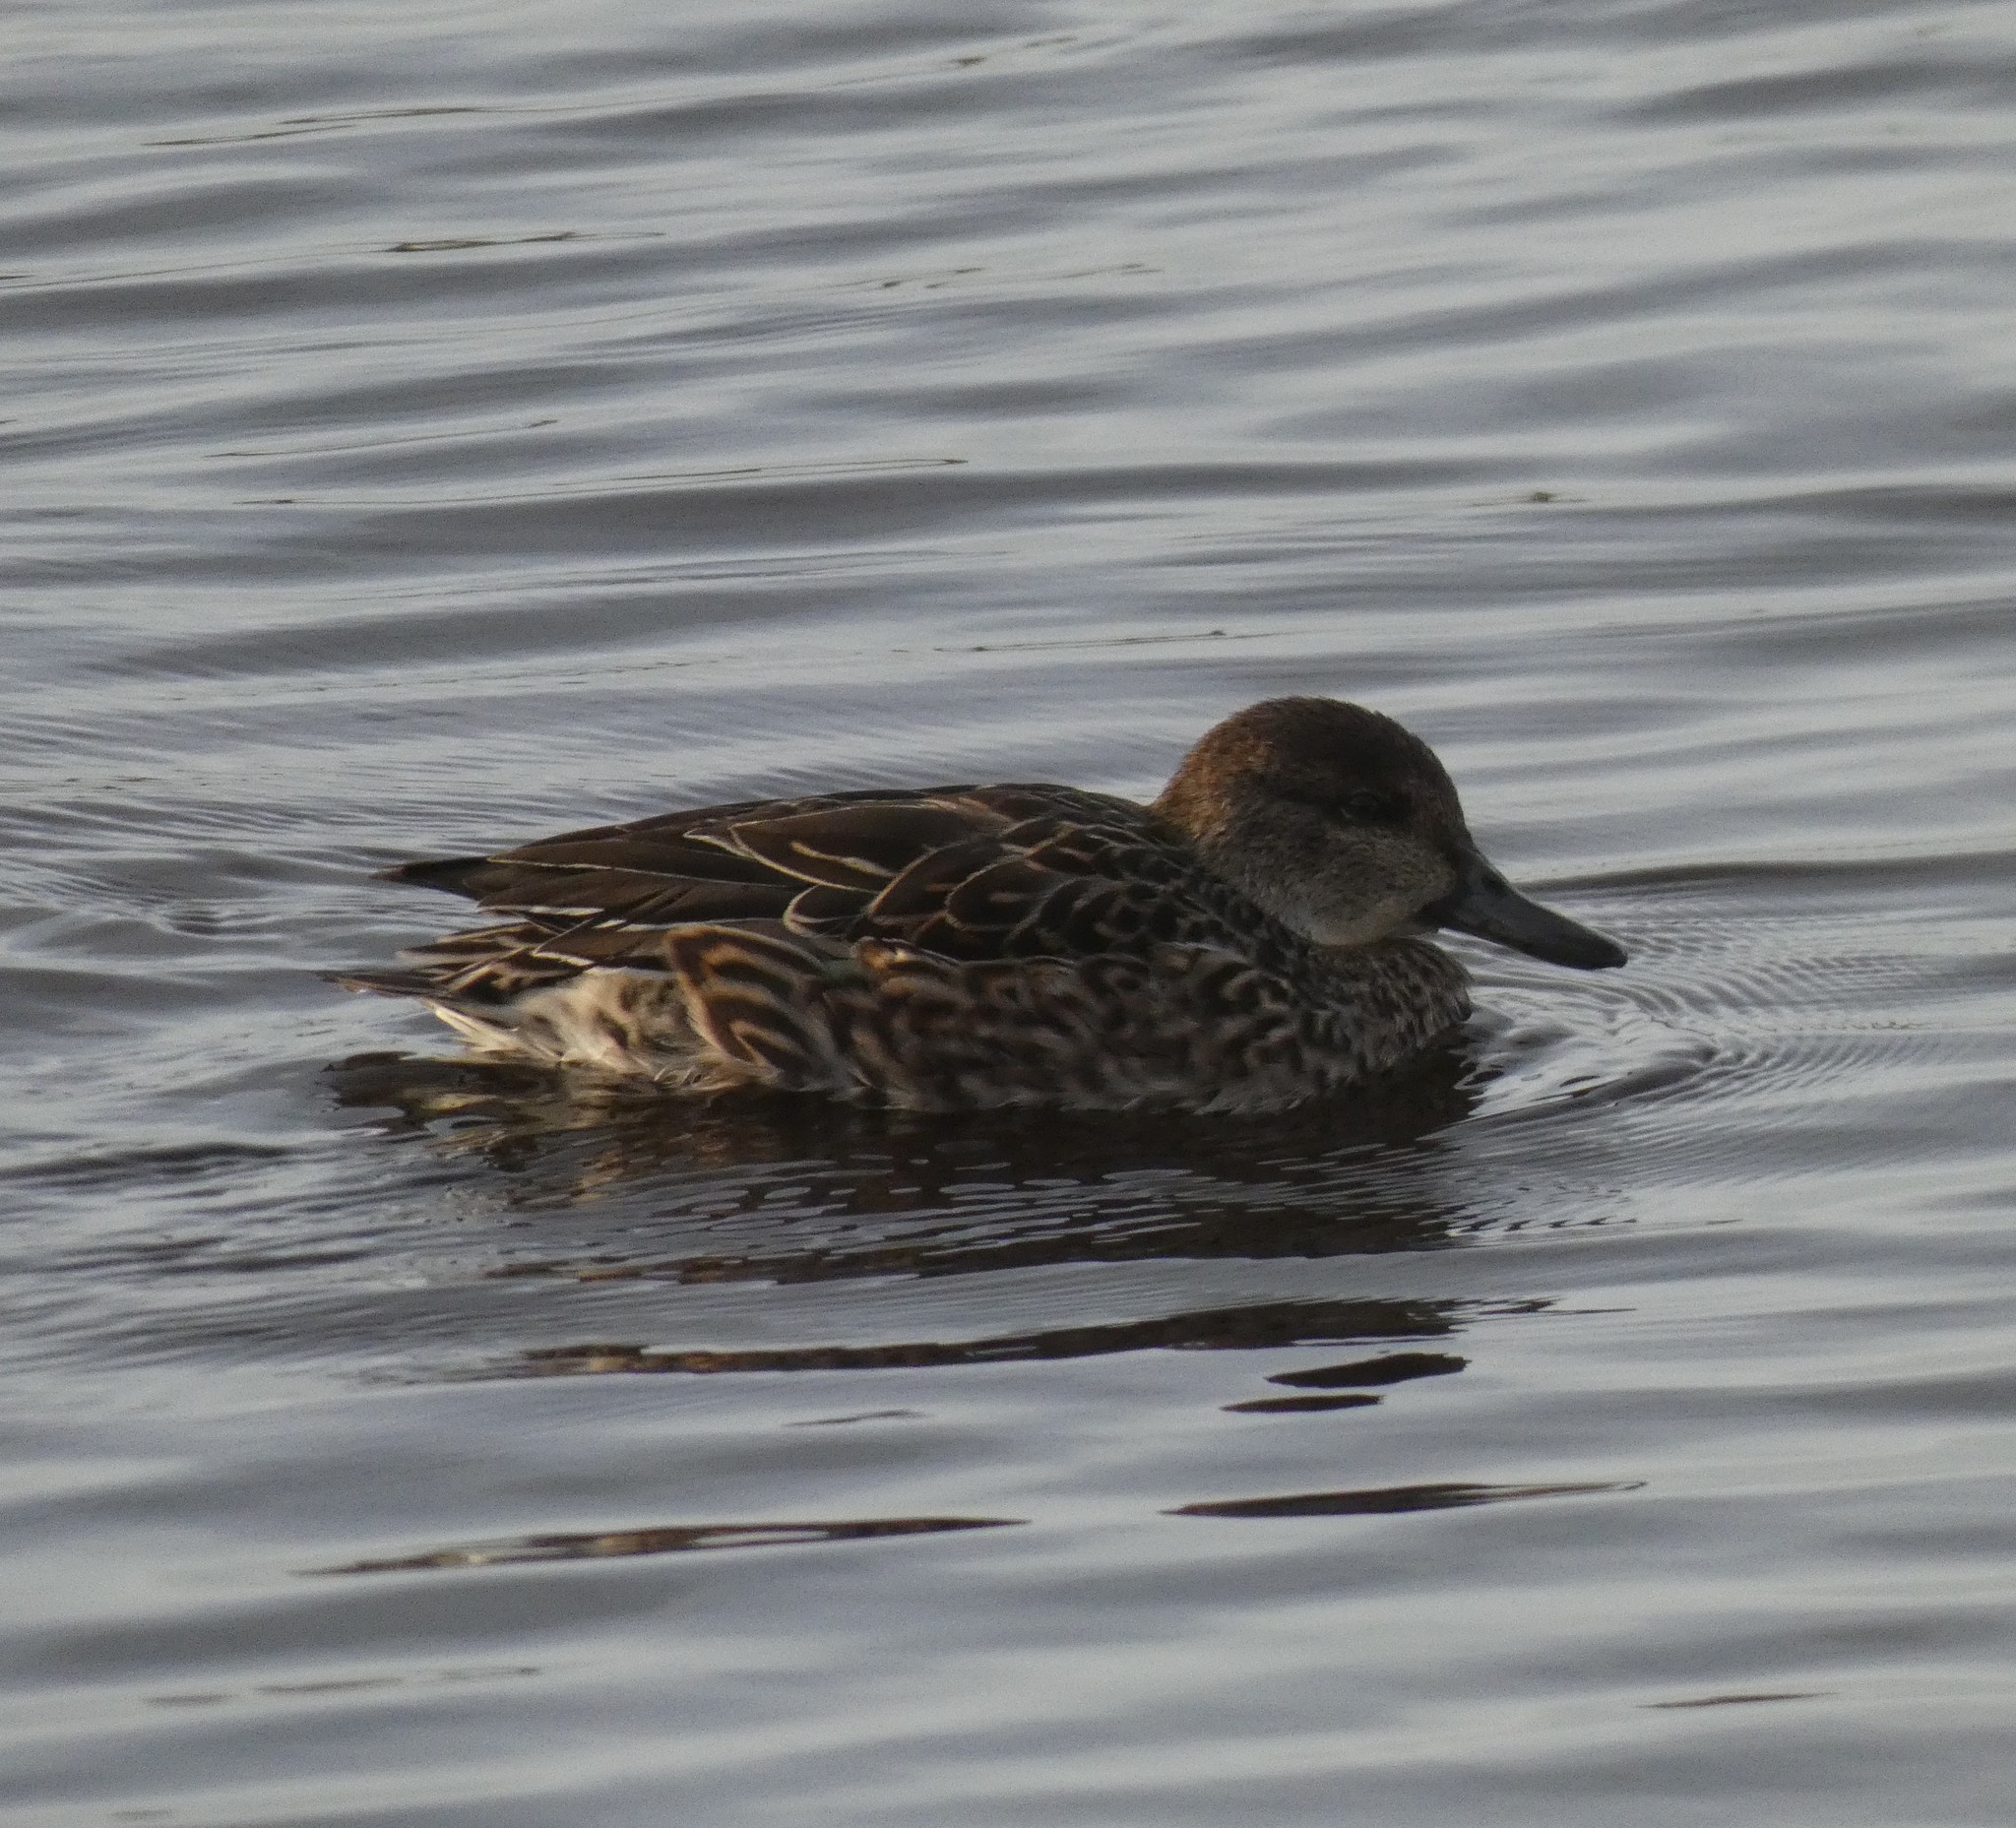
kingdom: Animalia
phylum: Chordata
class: Aves
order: Anseriformes
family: Anatidae
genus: Anas
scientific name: Anas crecca
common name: Eurasian teal
